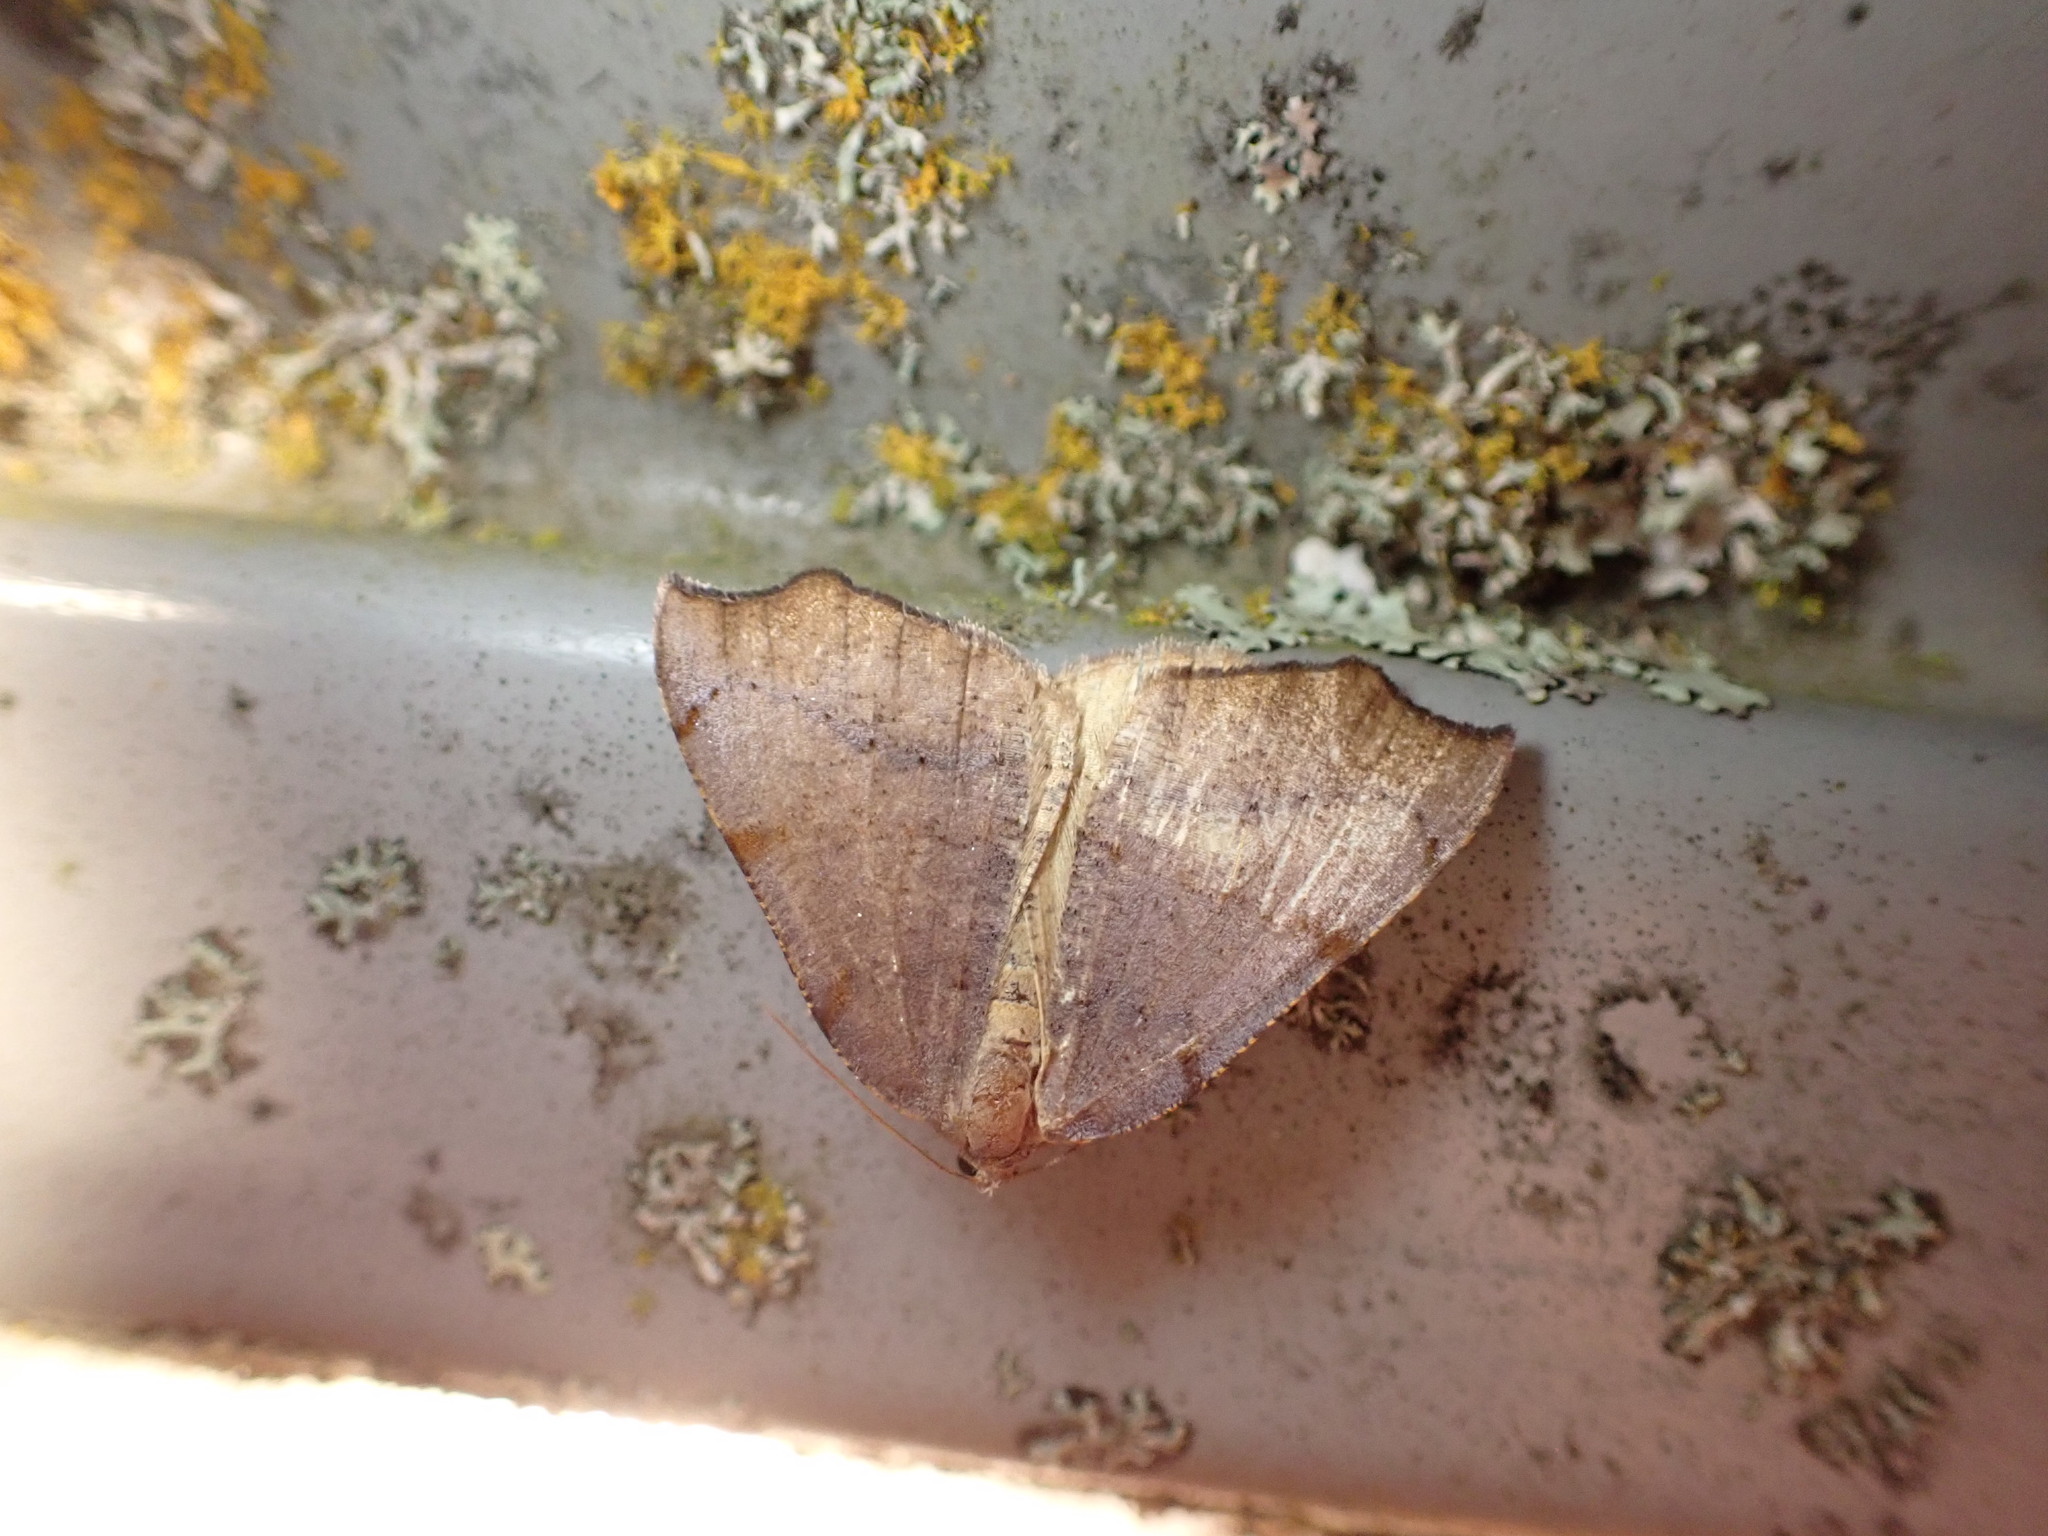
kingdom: Animalia
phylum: Arthropoda
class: Insecta
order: Lepidoptera
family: Geometridae
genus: Sestra
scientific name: Sestra flexata
